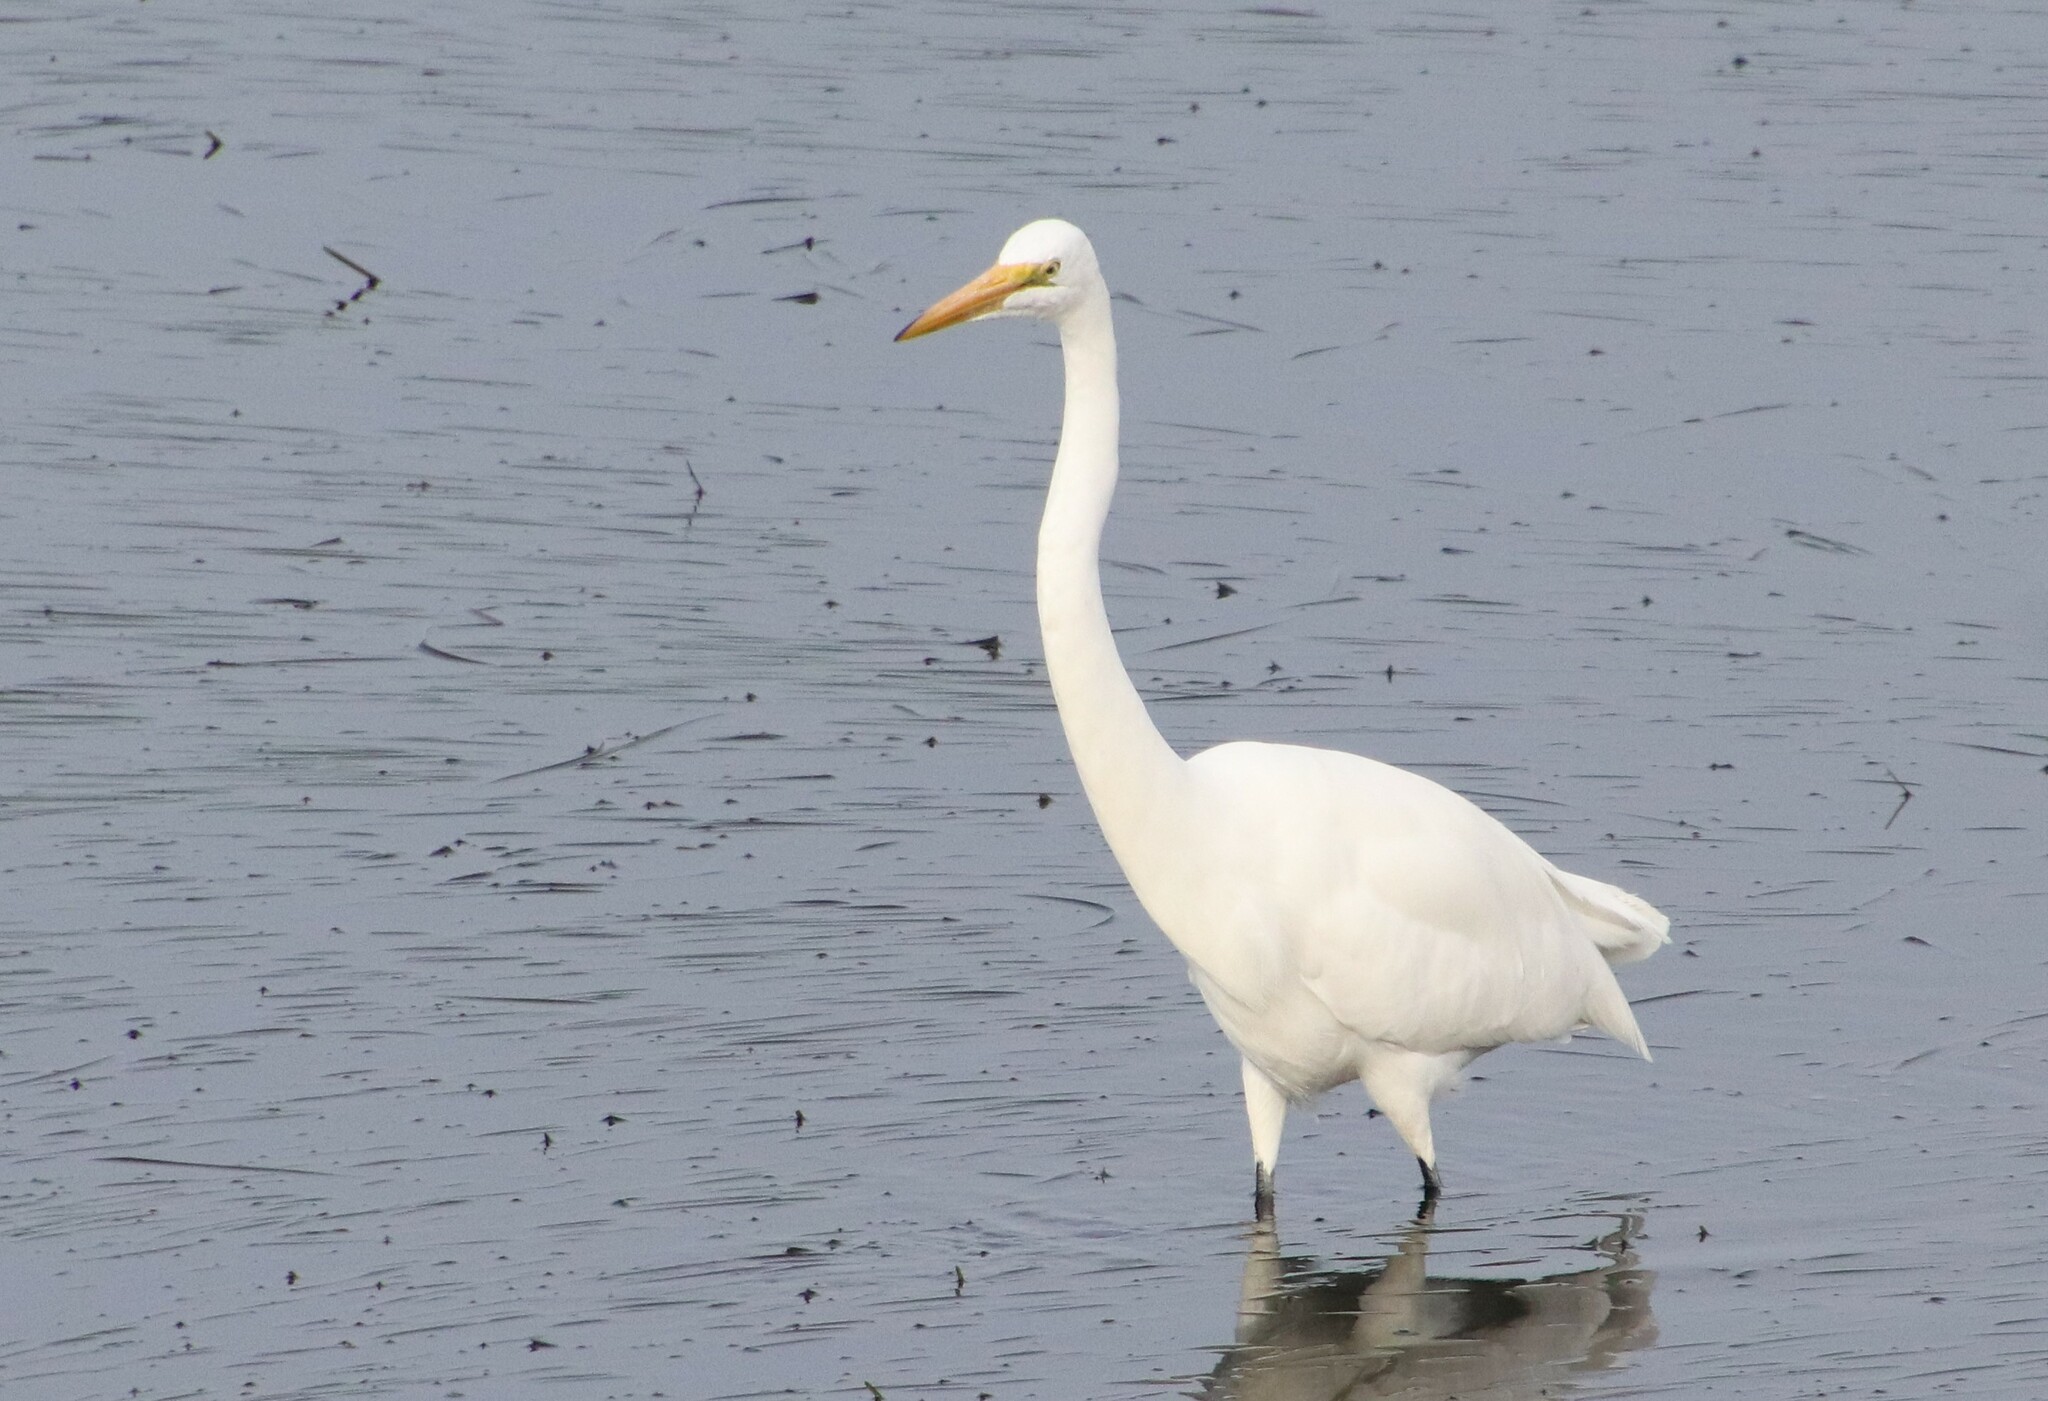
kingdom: Animalia
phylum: Chordata
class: Aves
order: Pelecaniformes
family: Ardeidae
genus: Ardea
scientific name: Ardea alba
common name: Great egret
